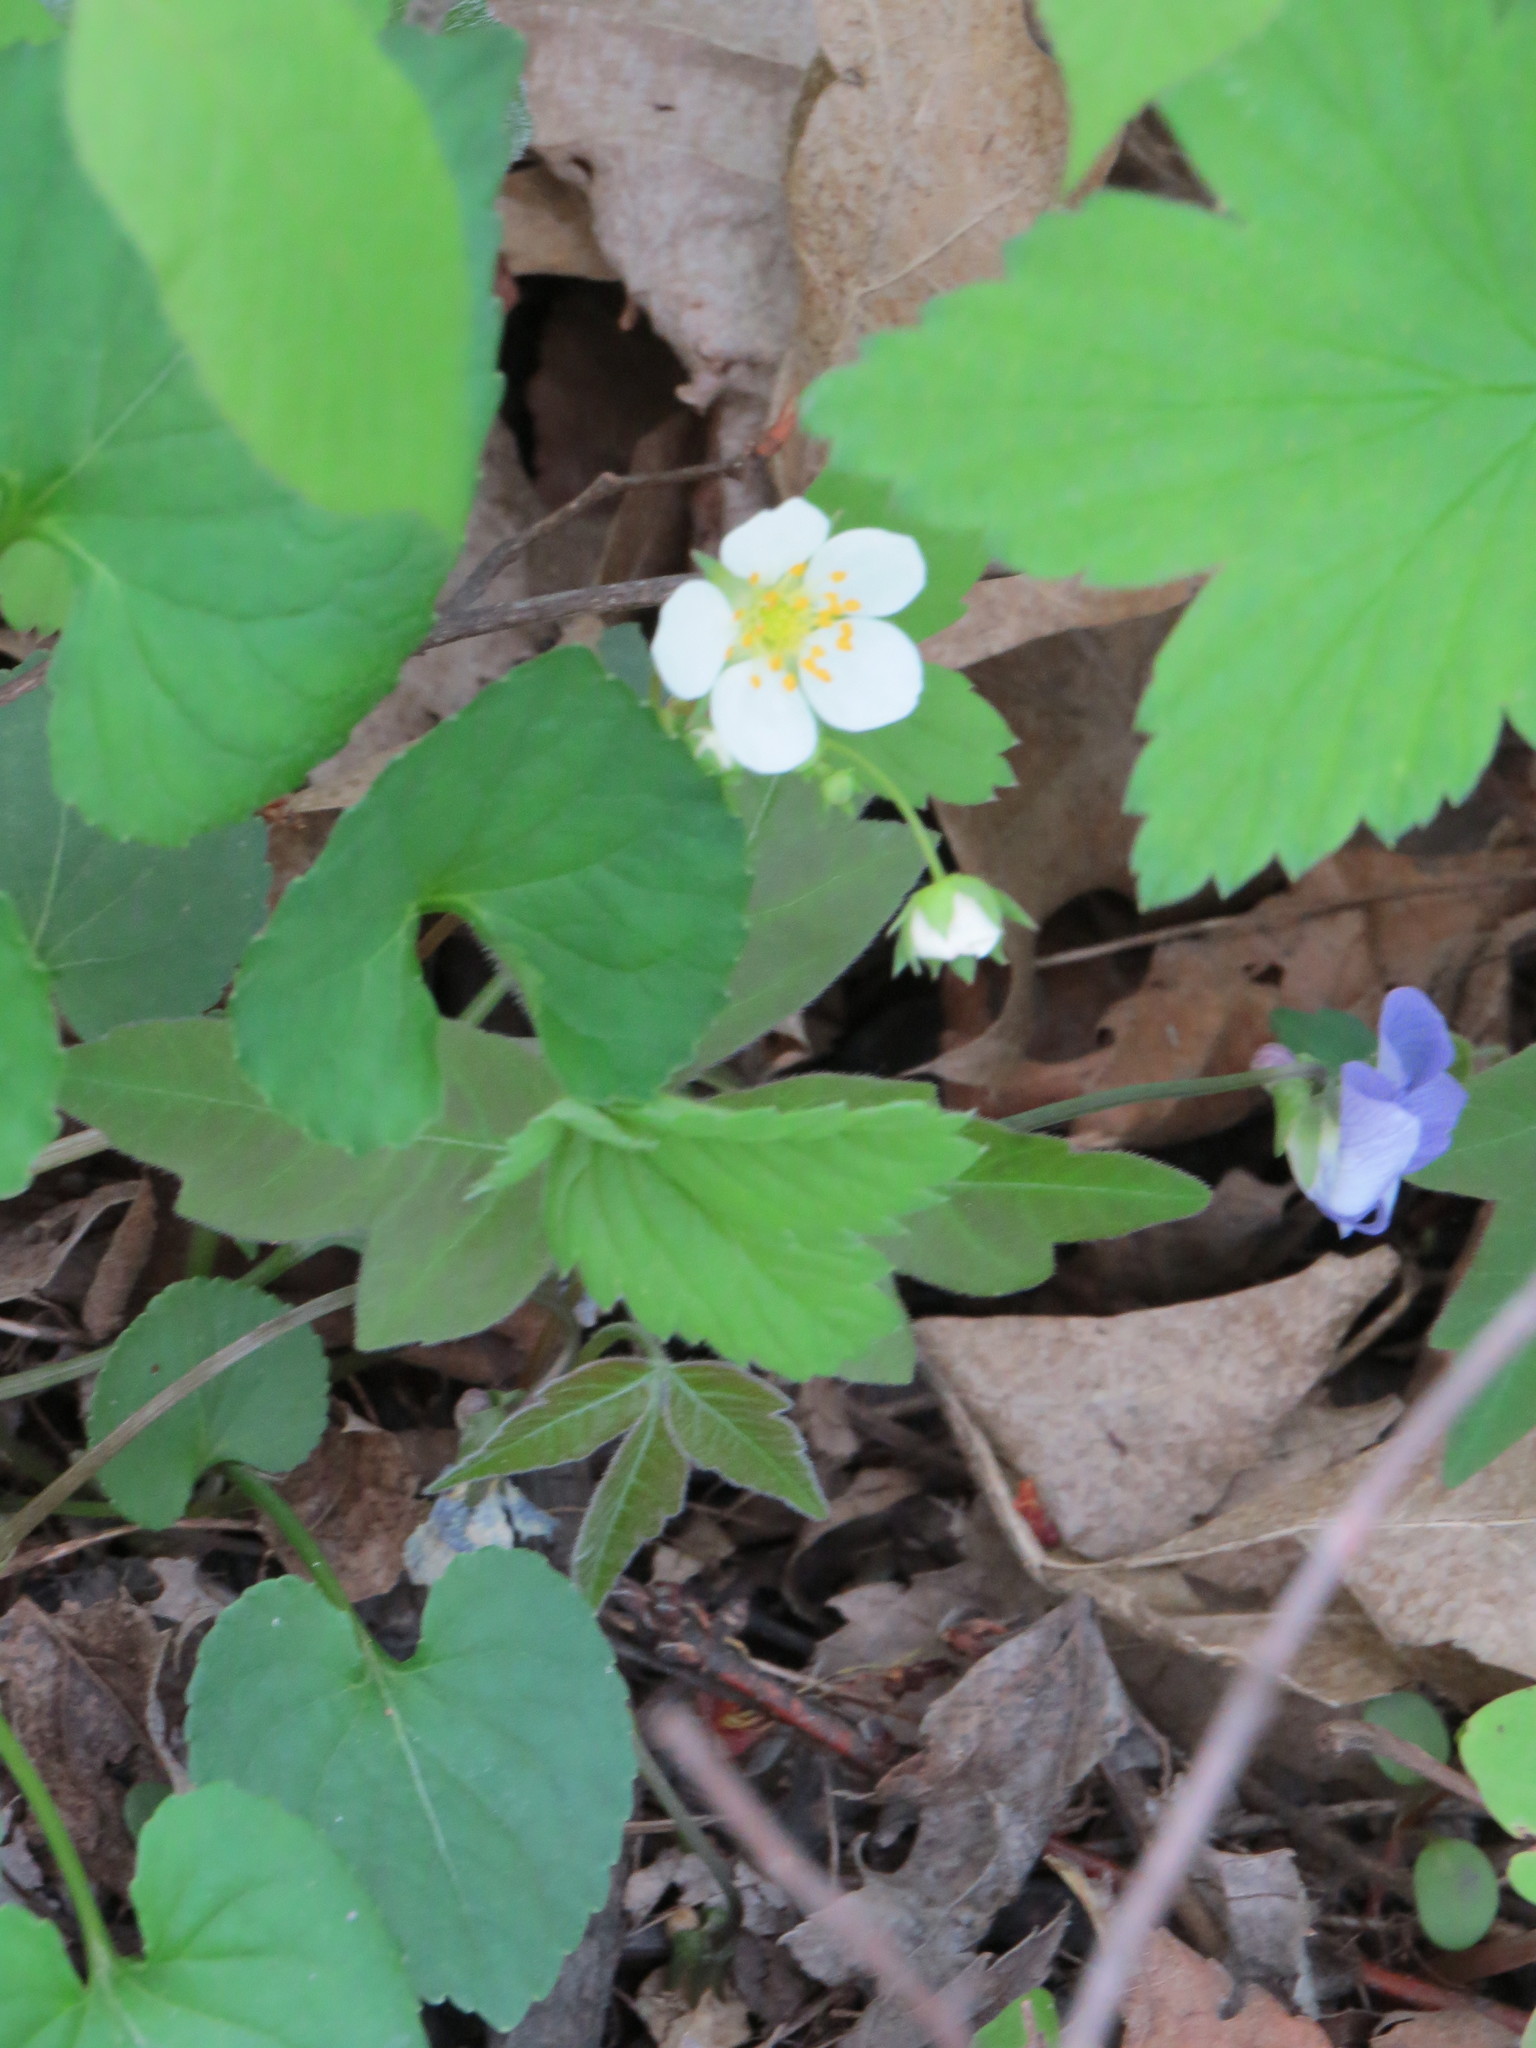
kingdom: Plantae
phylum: Tracheophyta
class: Magnoliopsida
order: Rosales
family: Rosaceae
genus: Fragaria
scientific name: Fragaria virginiana
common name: Thickleaved wild strawberry
